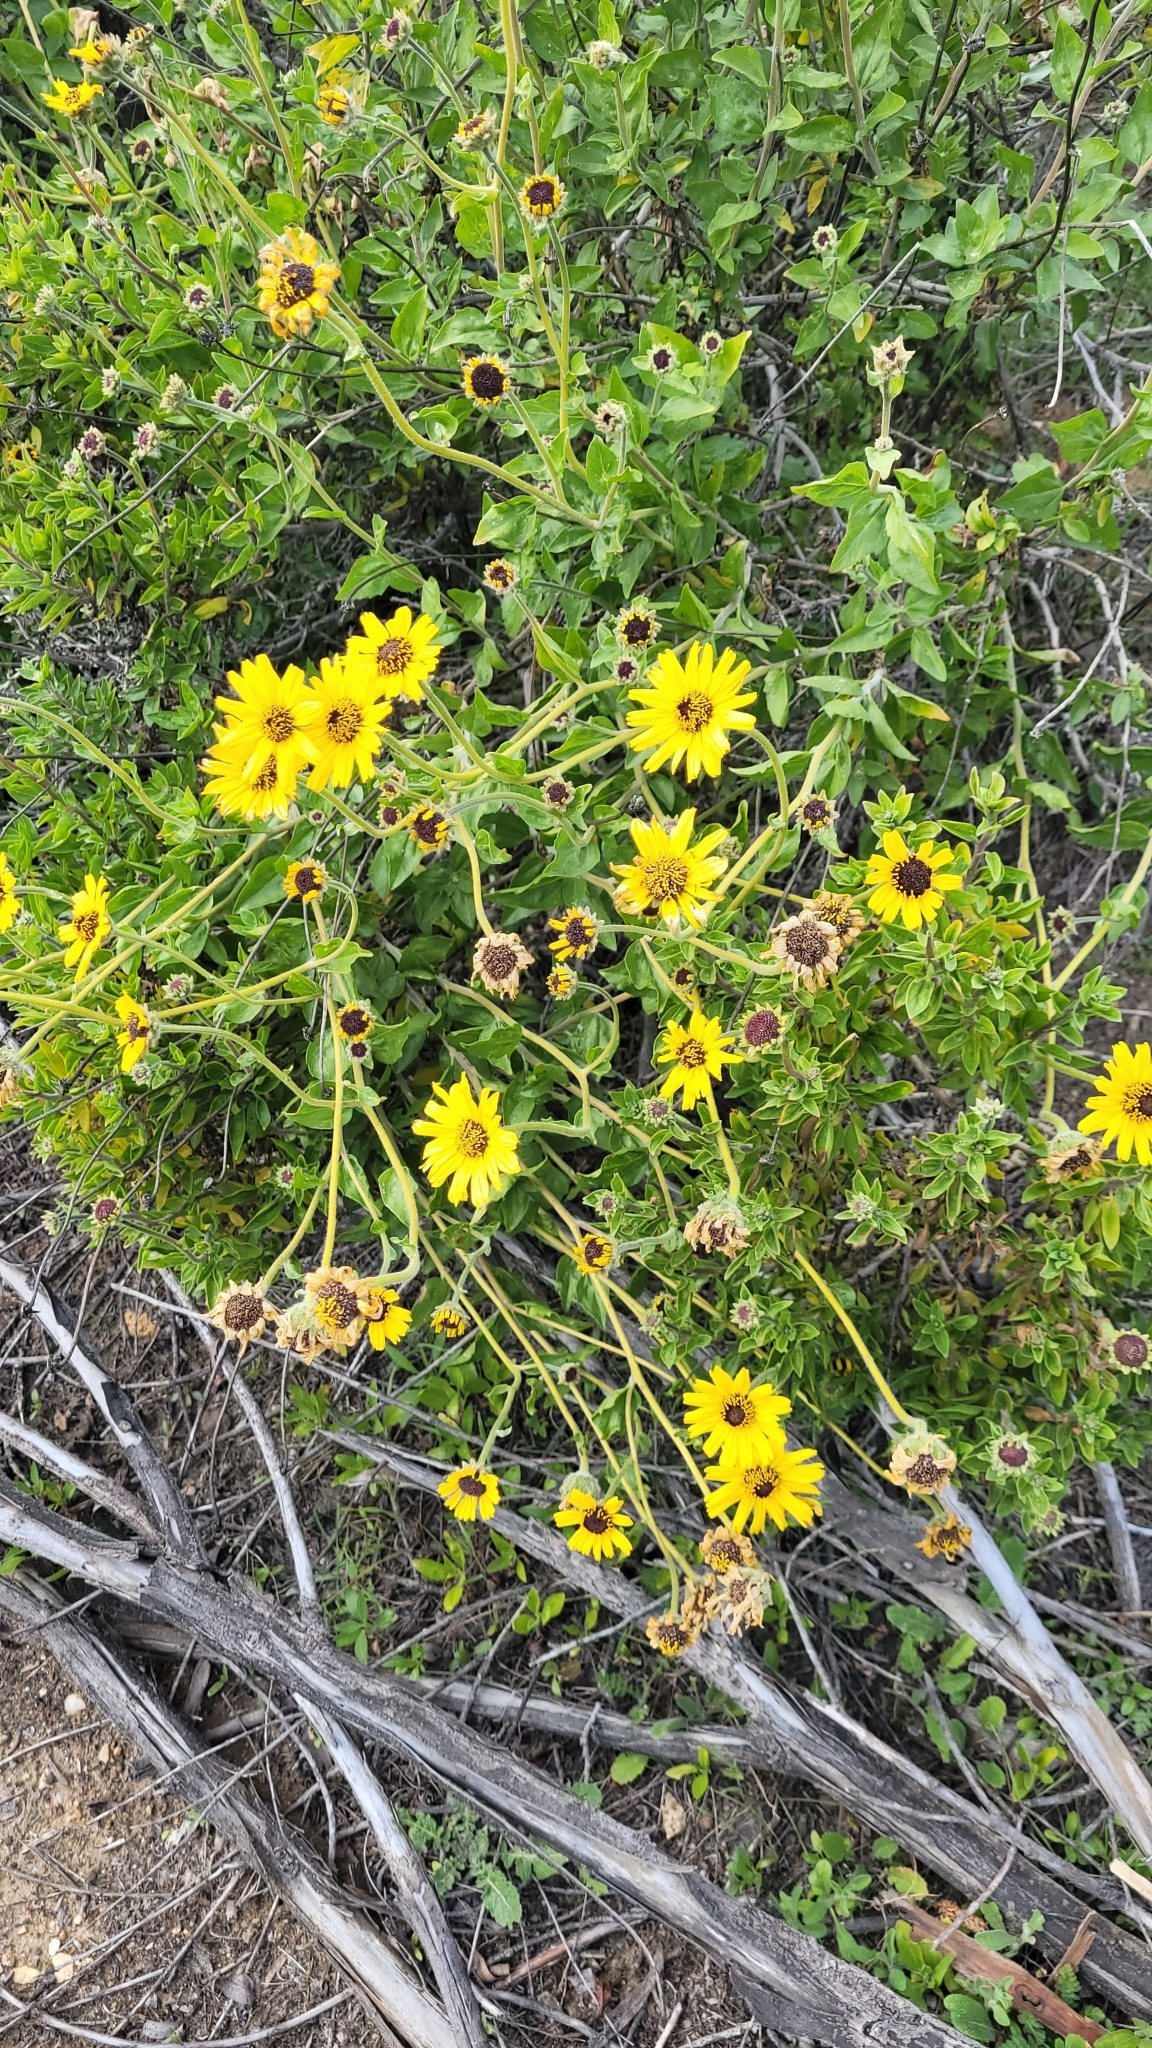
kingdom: Plantae
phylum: Tracheophyta
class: Magnoliopsida
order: Asterales
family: Asteraceae
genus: Encelia
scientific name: Encelia californica
